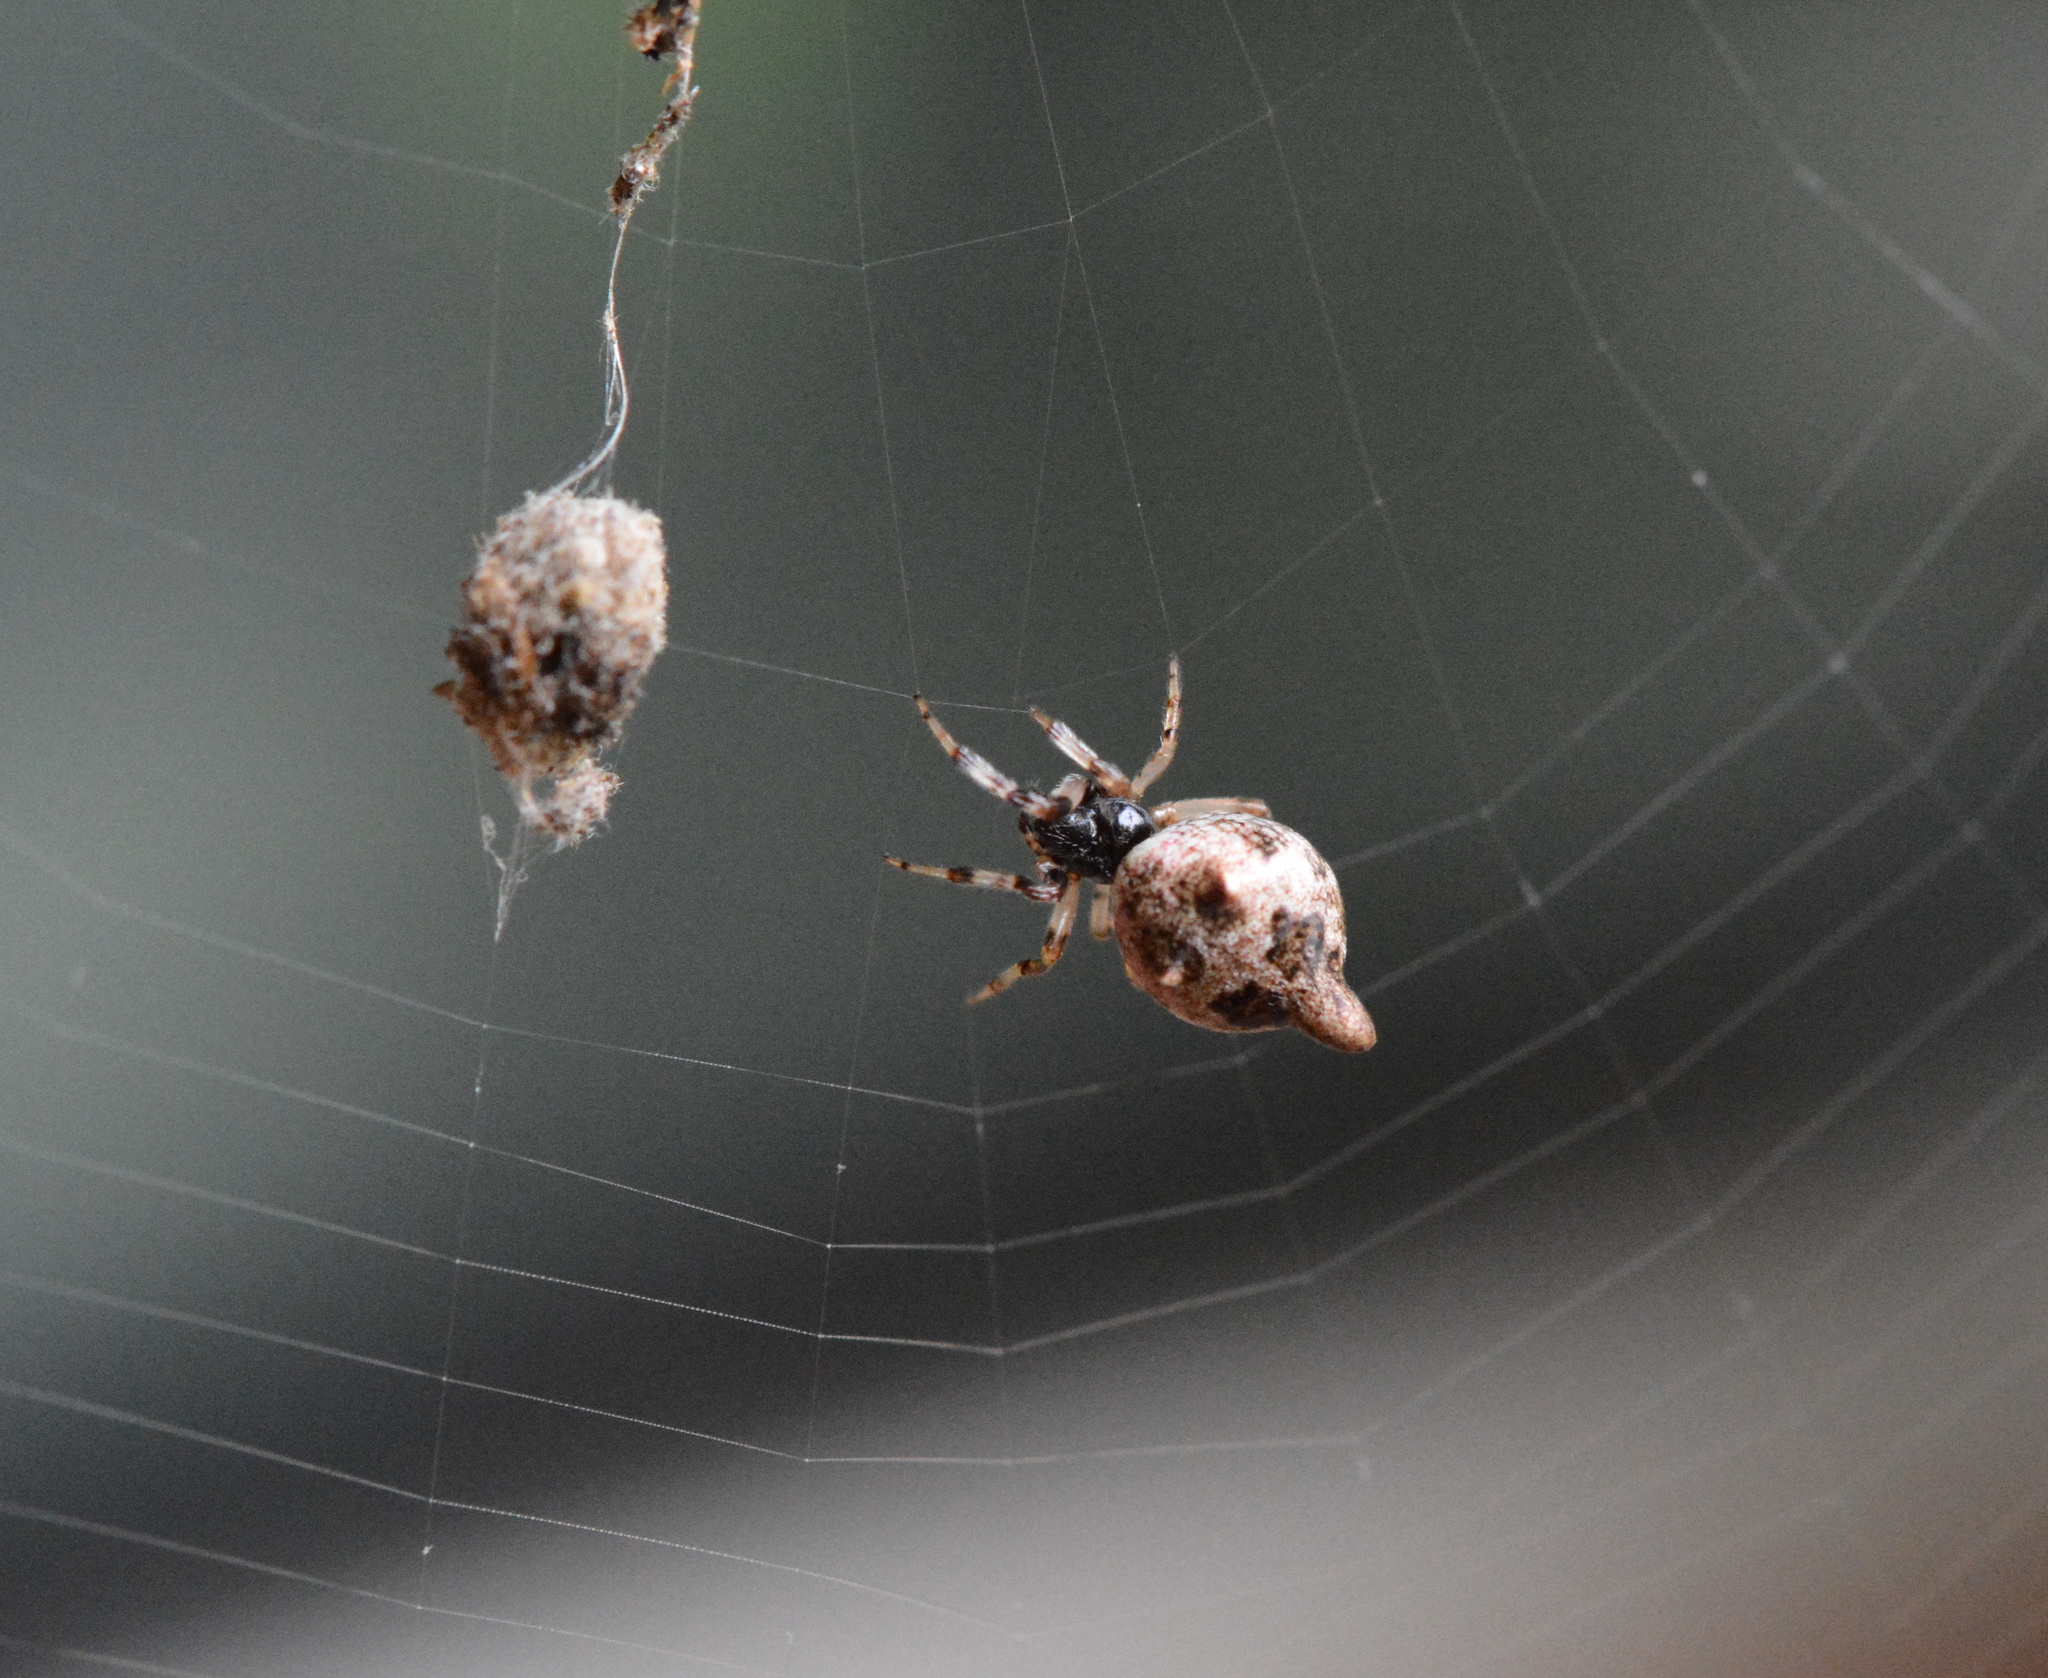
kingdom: Animalia
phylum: Arthropoda
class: Arachnida
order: Araneae
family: Araneidae
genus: Cyclosa
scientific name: Cyclosa turbinata
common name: Orb weavers
